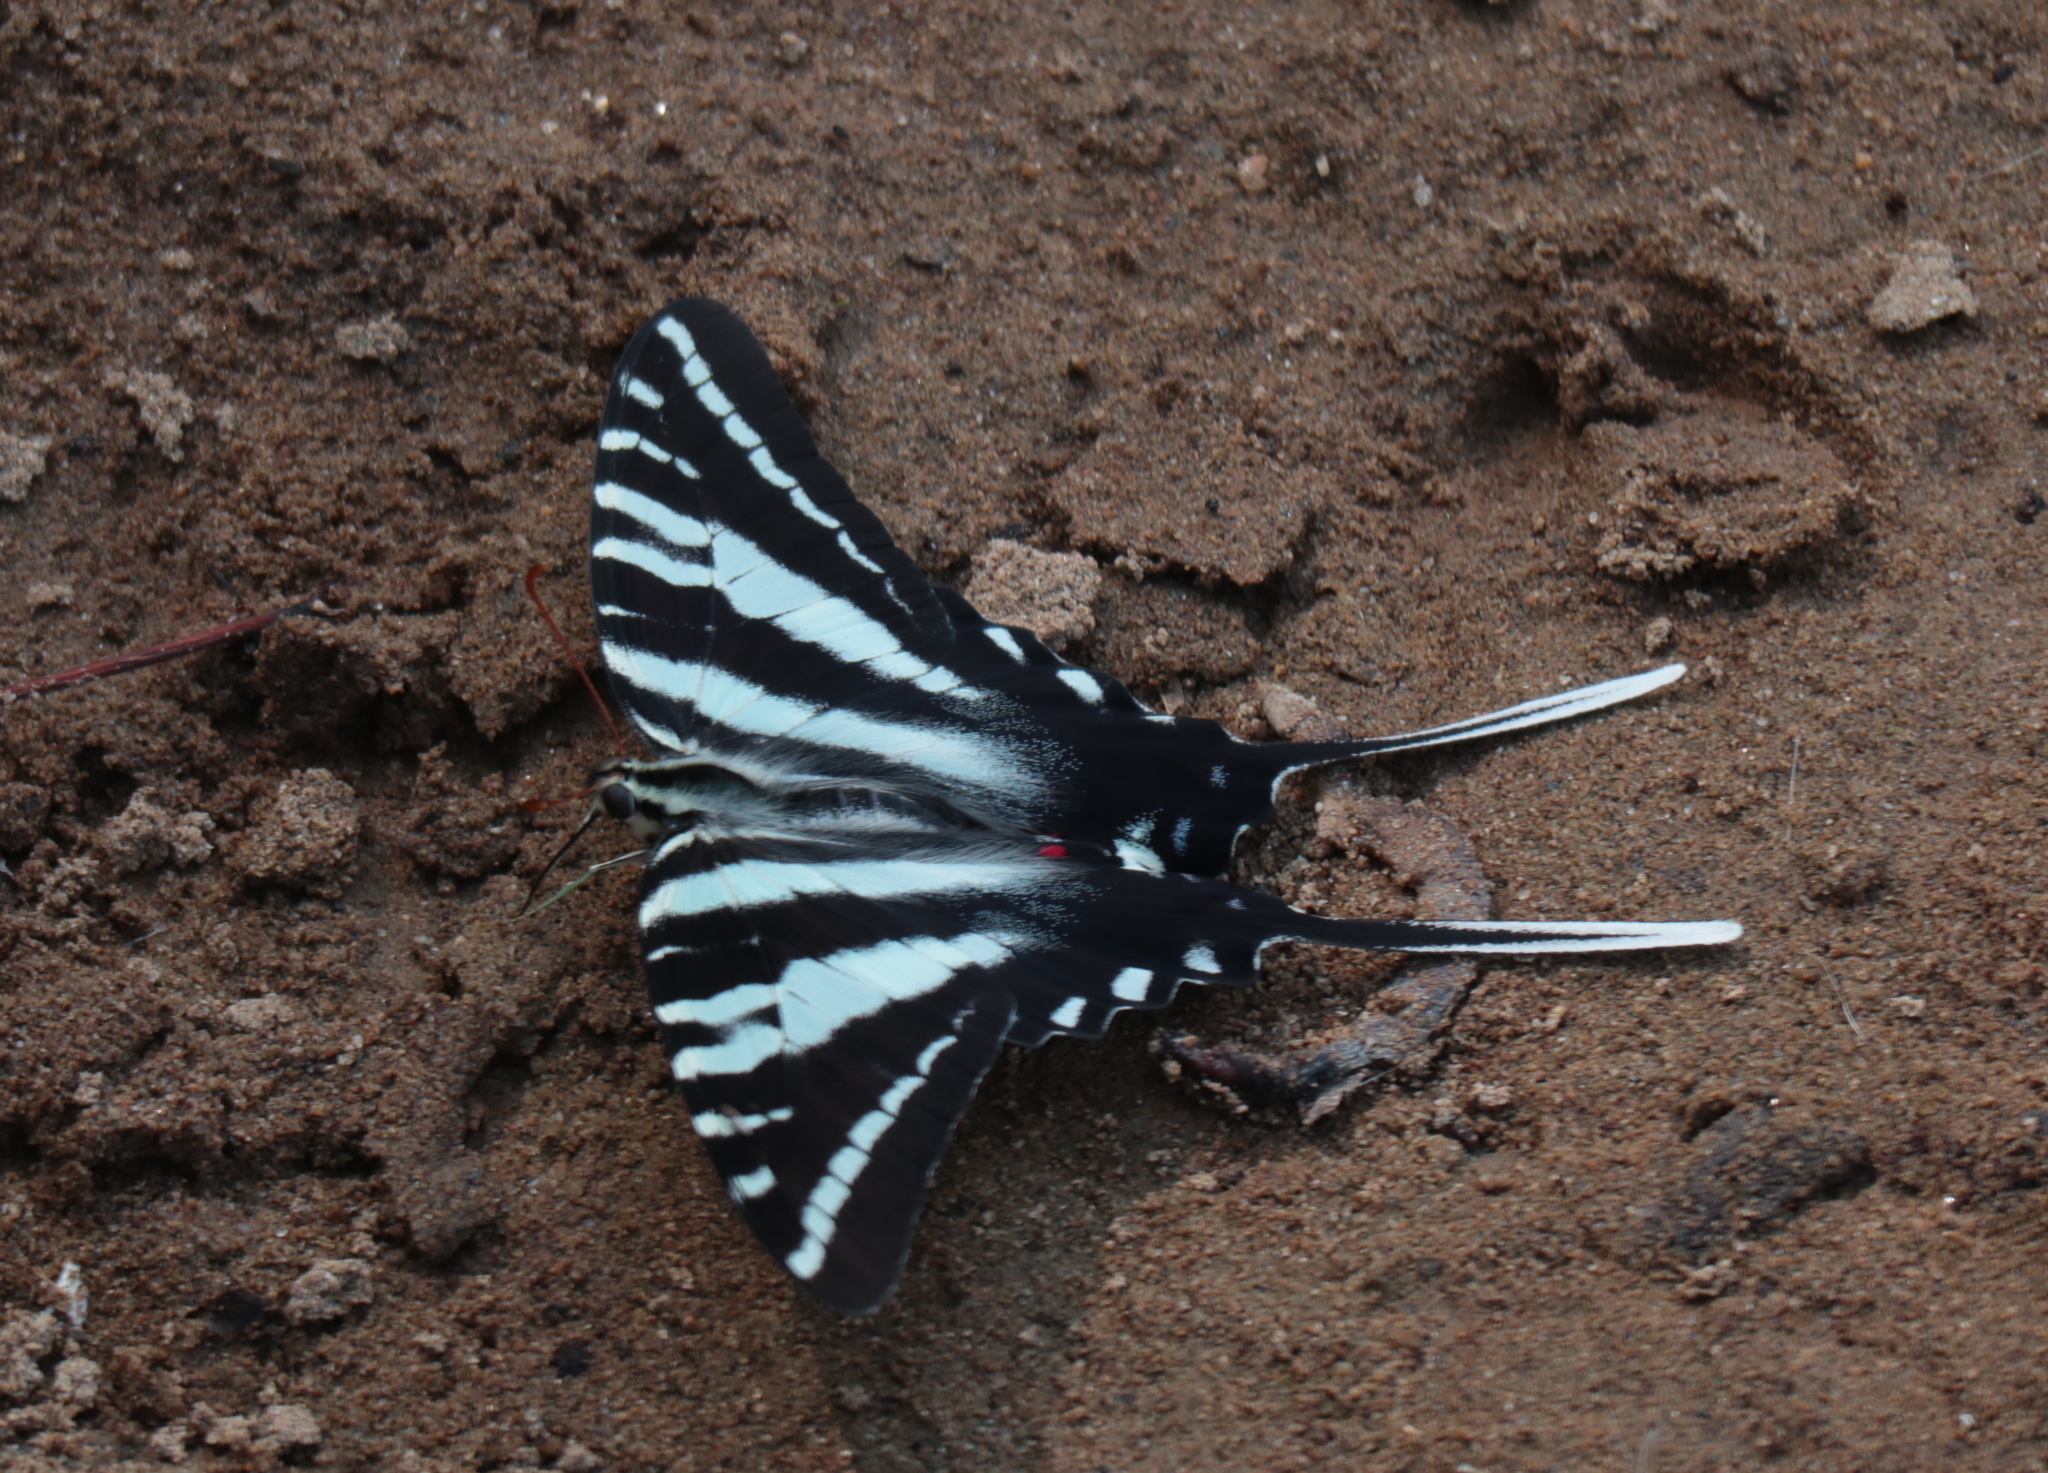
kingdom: Animalia
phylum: Arthropoda
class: Insecta
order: Lepidoptera
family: Papilionidae
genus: Protographium
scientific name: Protographium marcellus
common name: Zebra swallowtail
